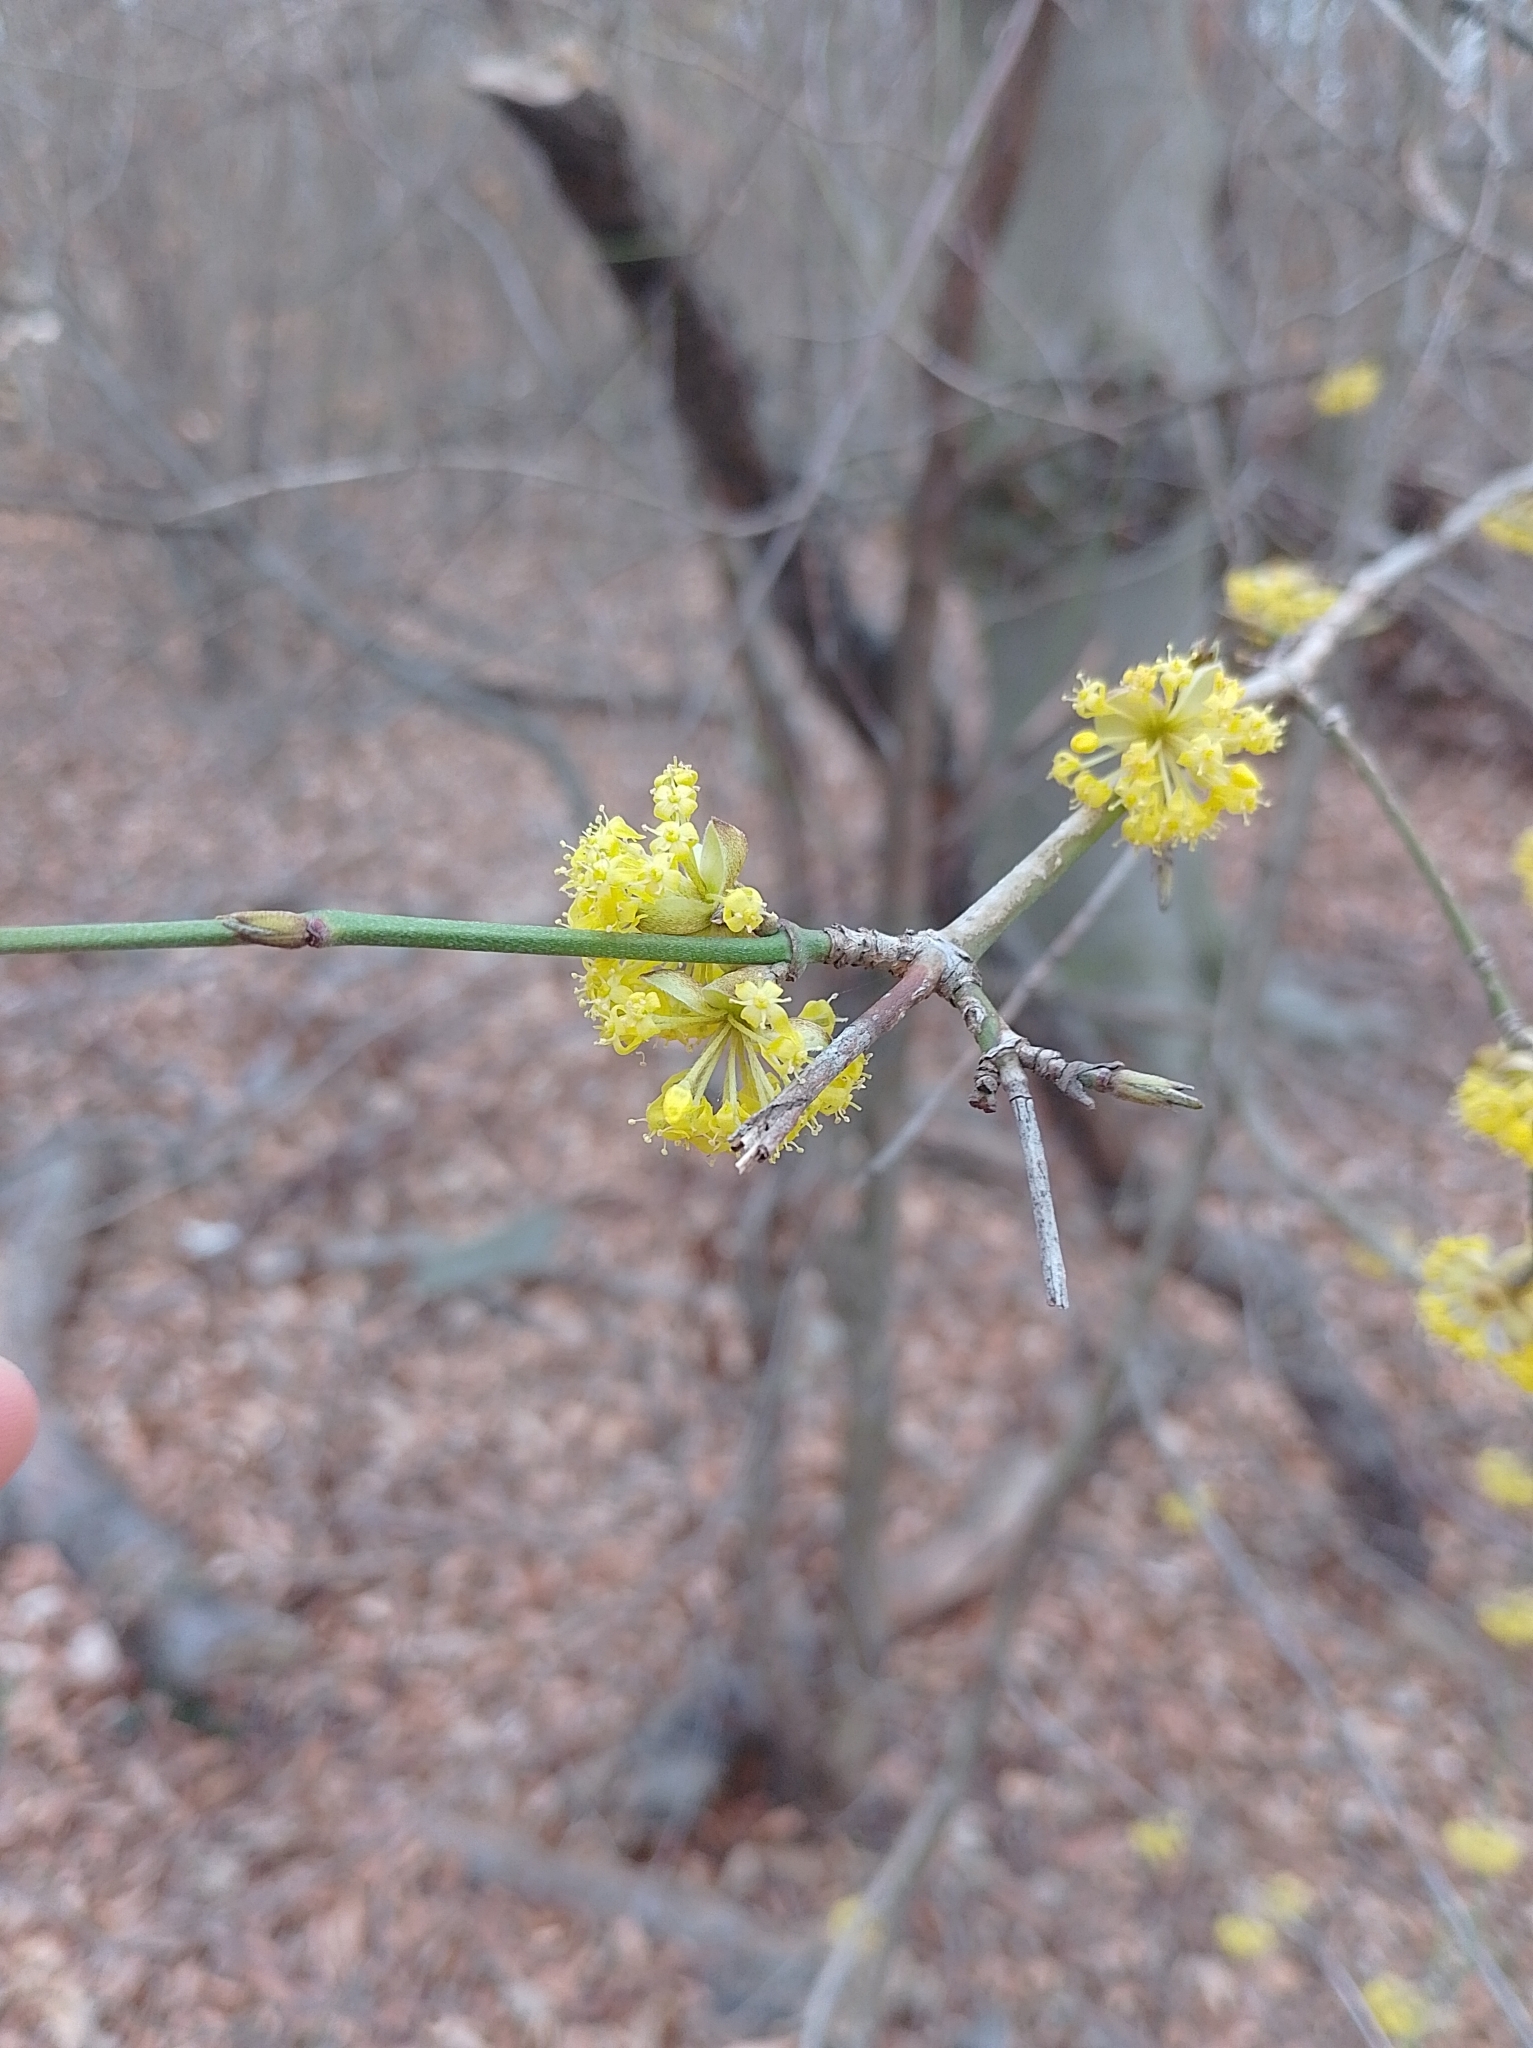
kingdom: Plantae
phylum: Tracheophyta
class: Magnoliopsida
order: Cornales
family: Cornaceae
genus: Cornus
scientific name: Cornus mas
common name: Cornelian-cherry
